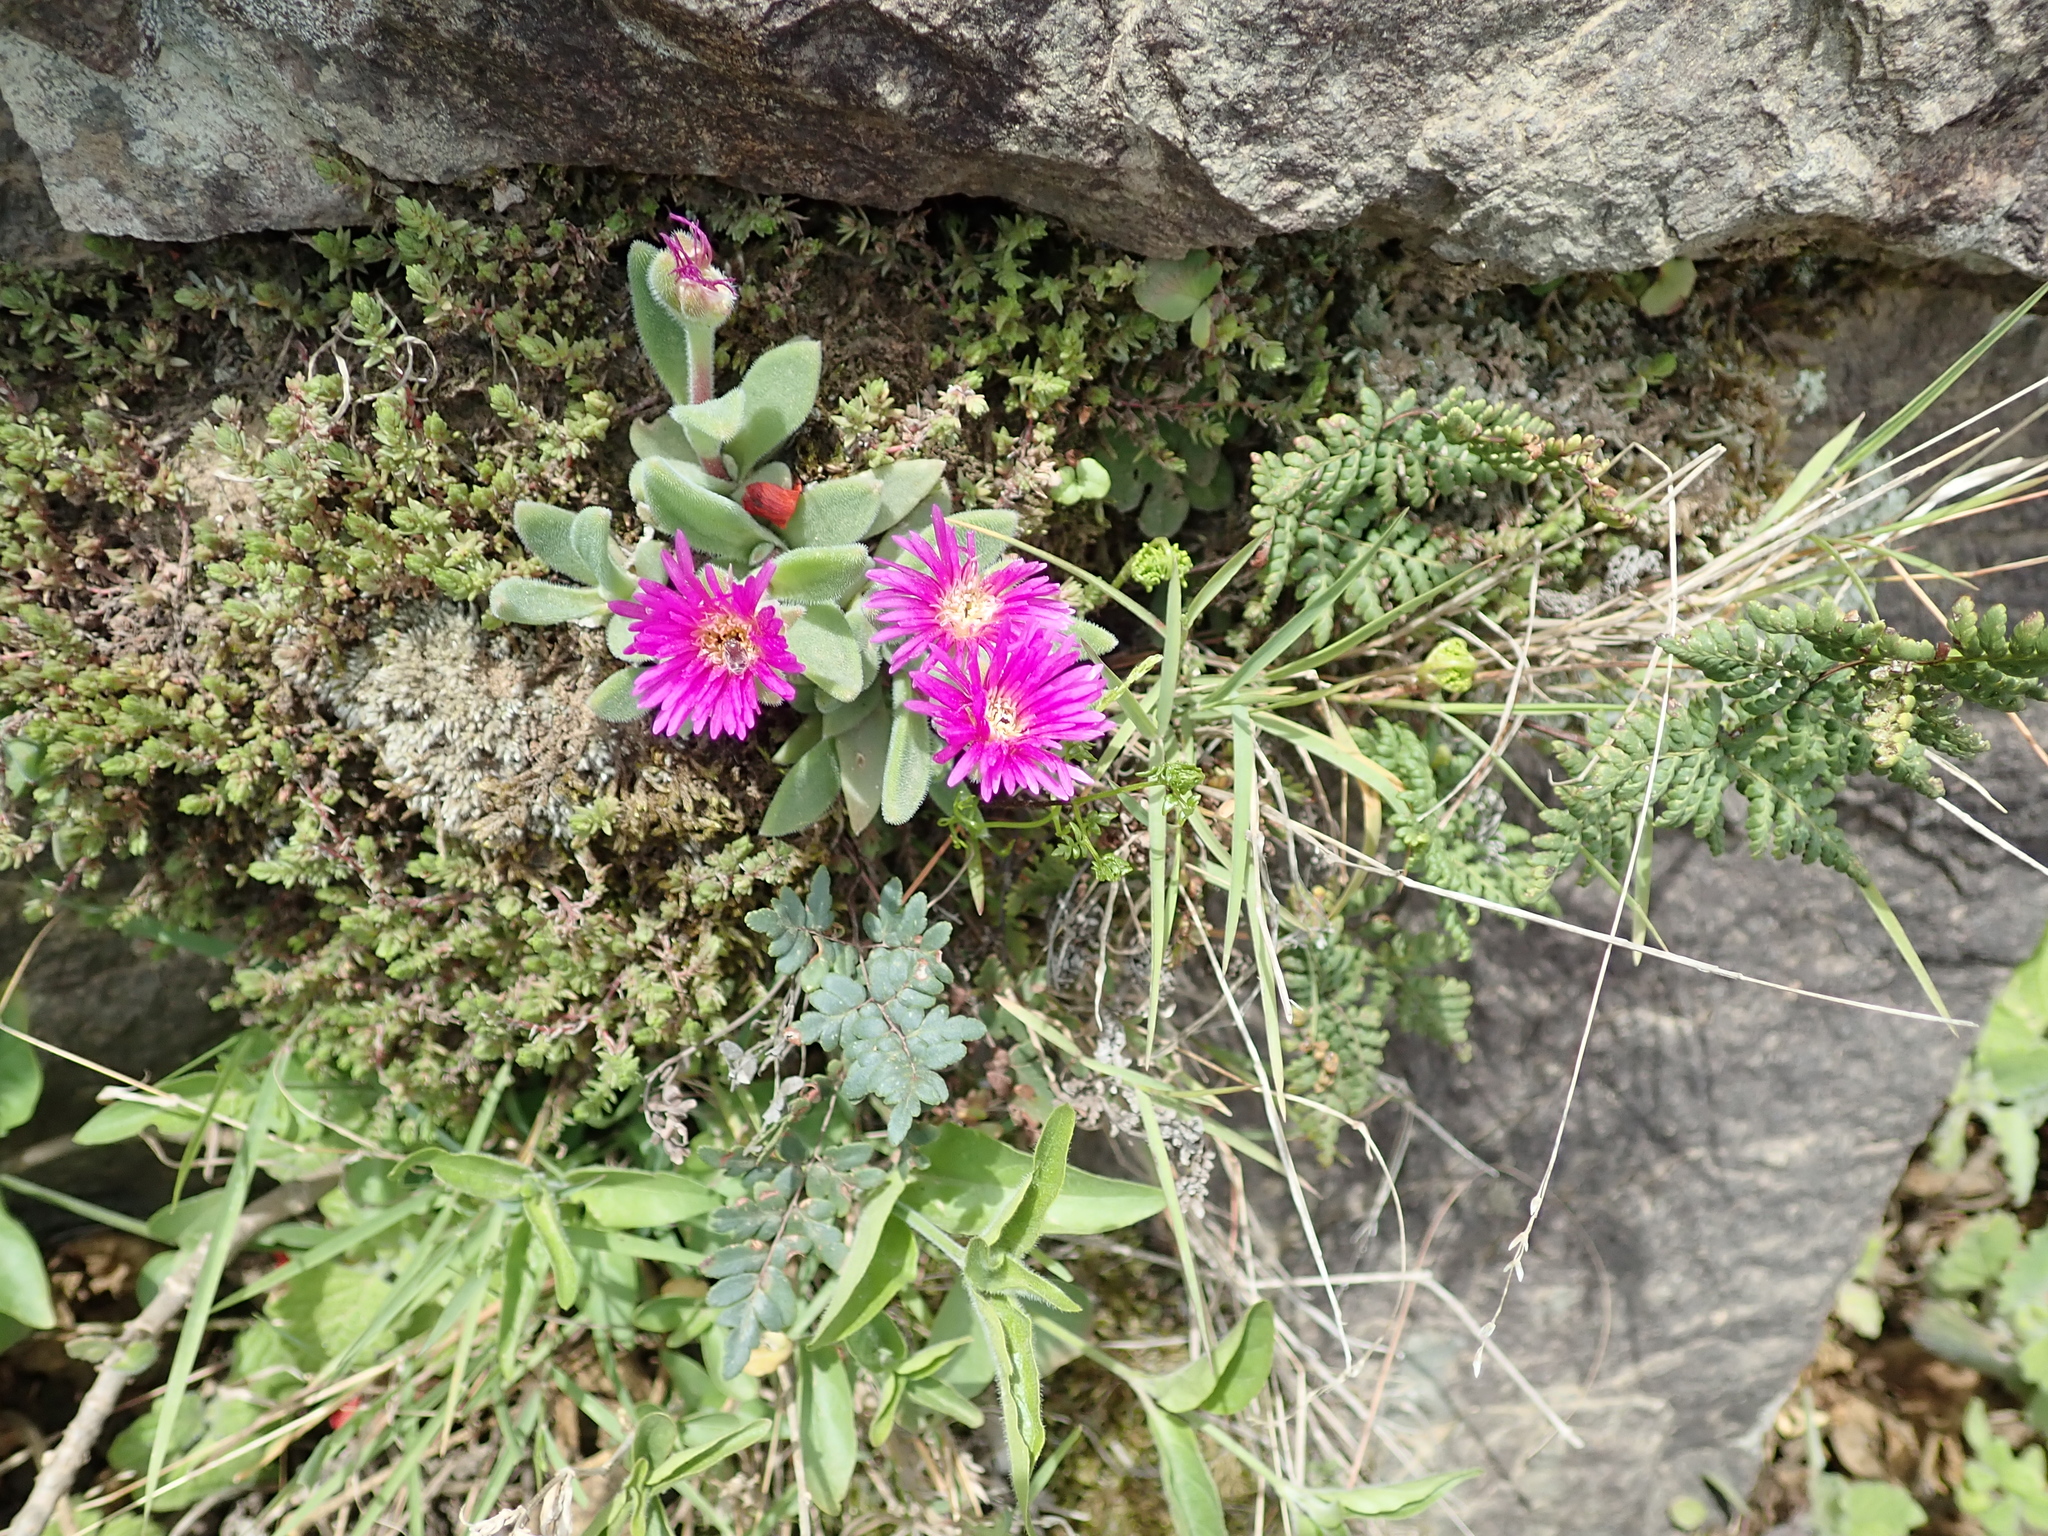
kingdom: Plantae
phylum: Tracheophyta
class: Magnoliopsida
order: Caryophyllales
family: Aizoaceae
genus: Delosperma
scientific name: Delosperma sutherlandii
